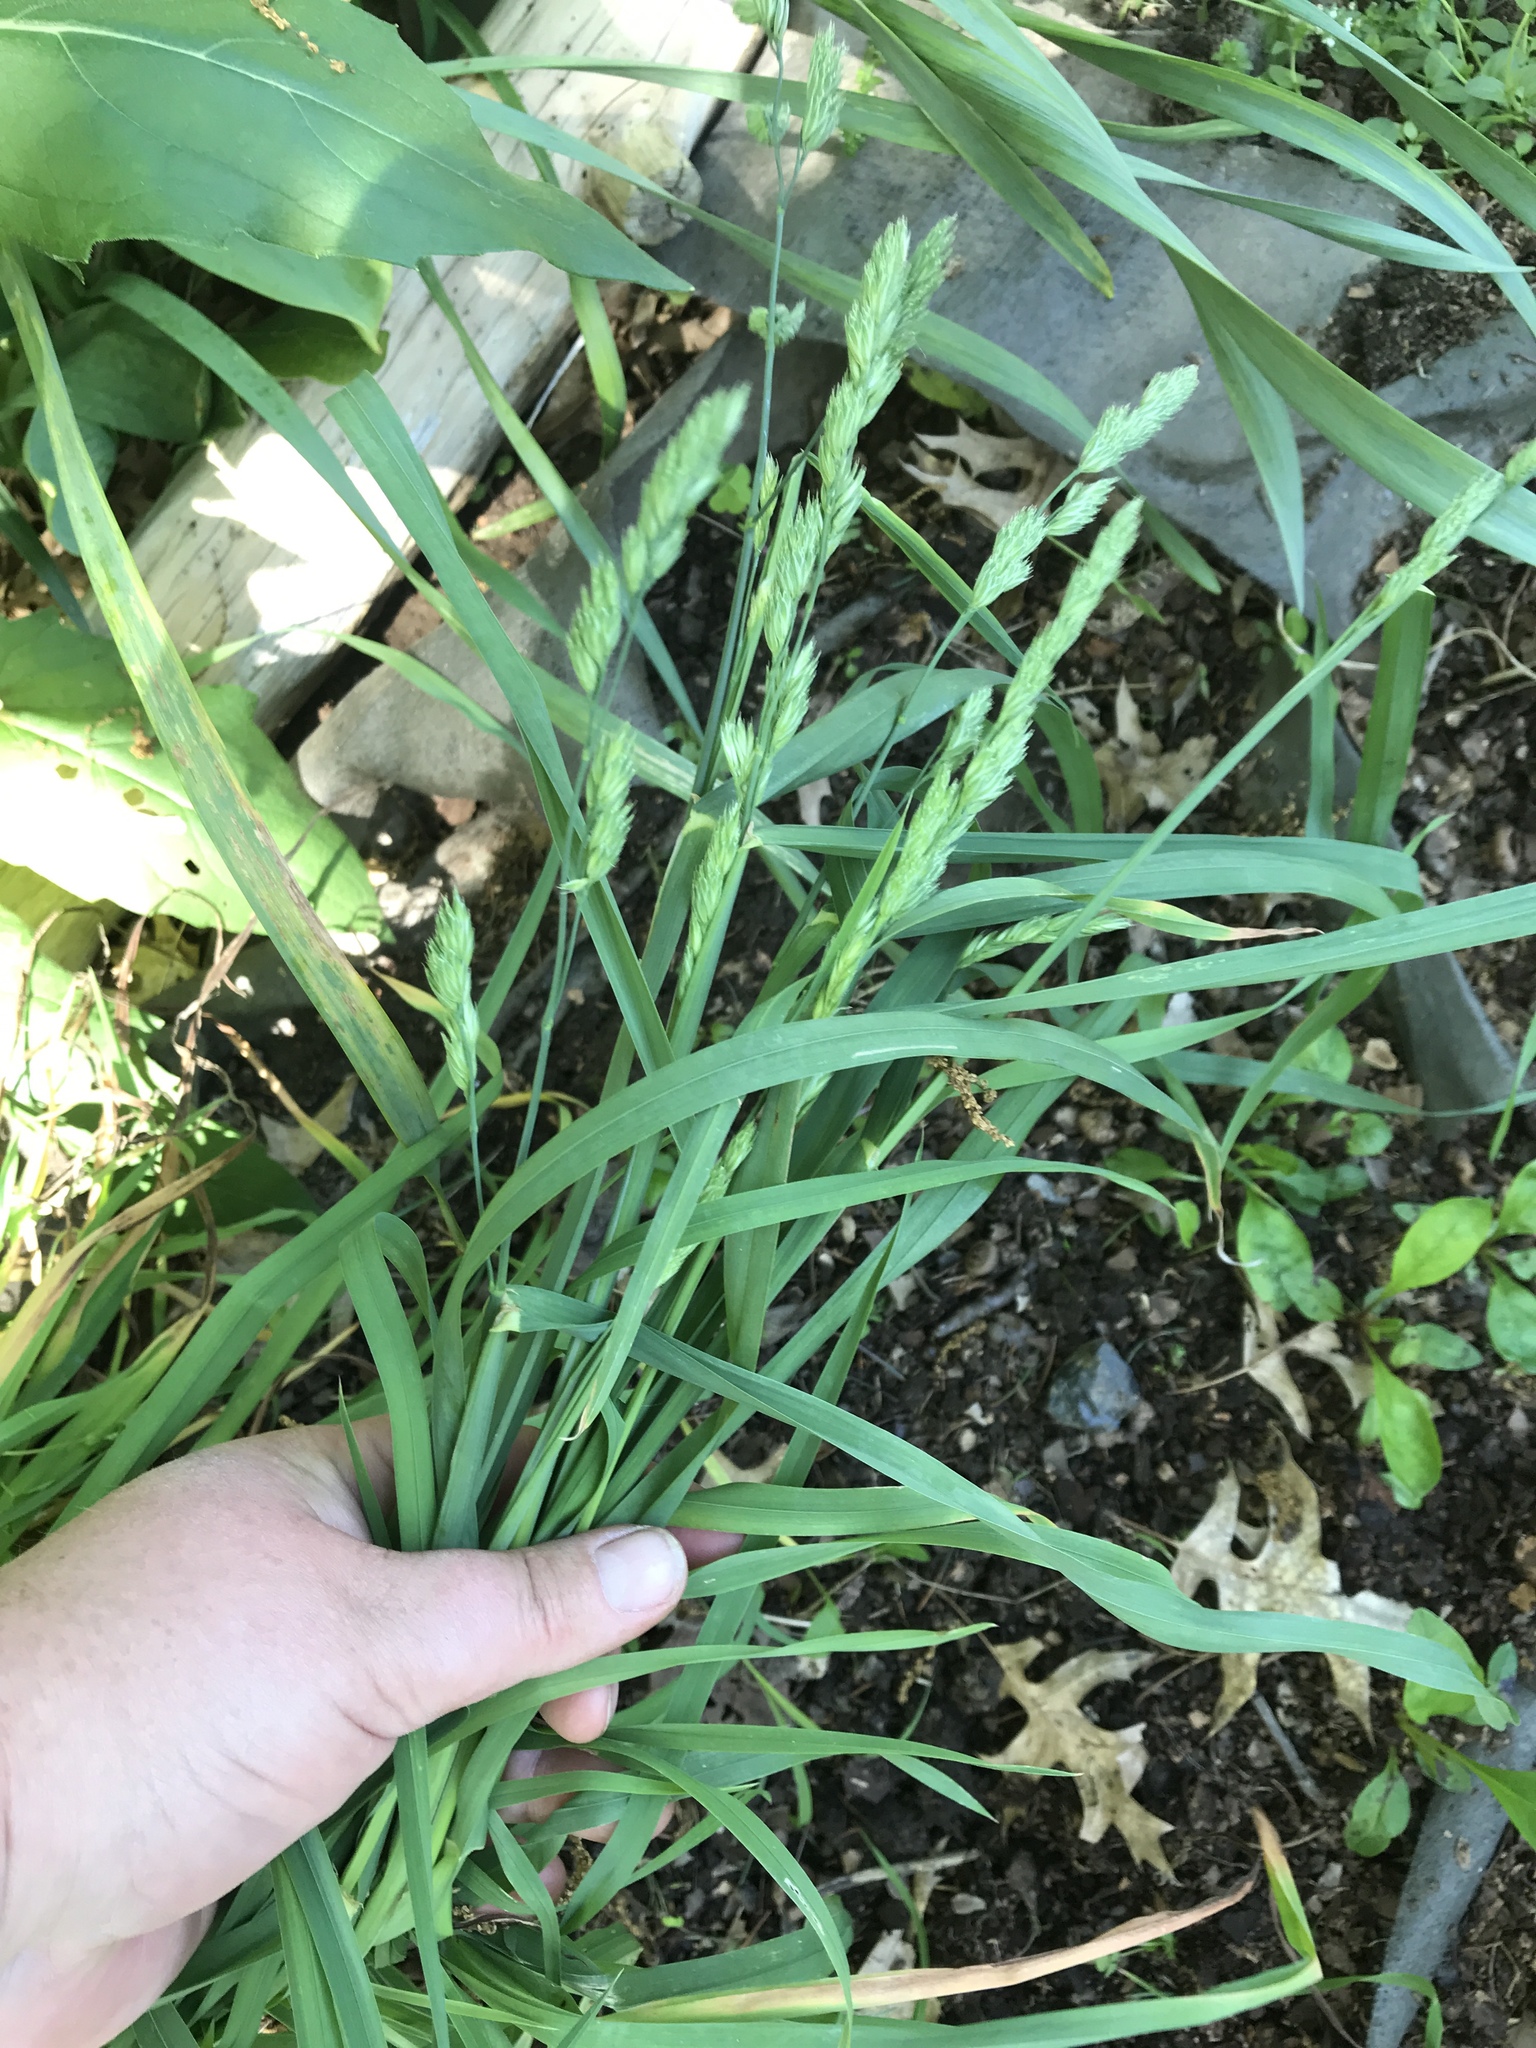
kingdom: Plantae
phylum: Tracheophyta
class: Liliopsida
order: Poales
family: Poaceae
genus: Dactylis
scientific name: Dactylis glomerata
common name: Orchardgrass
